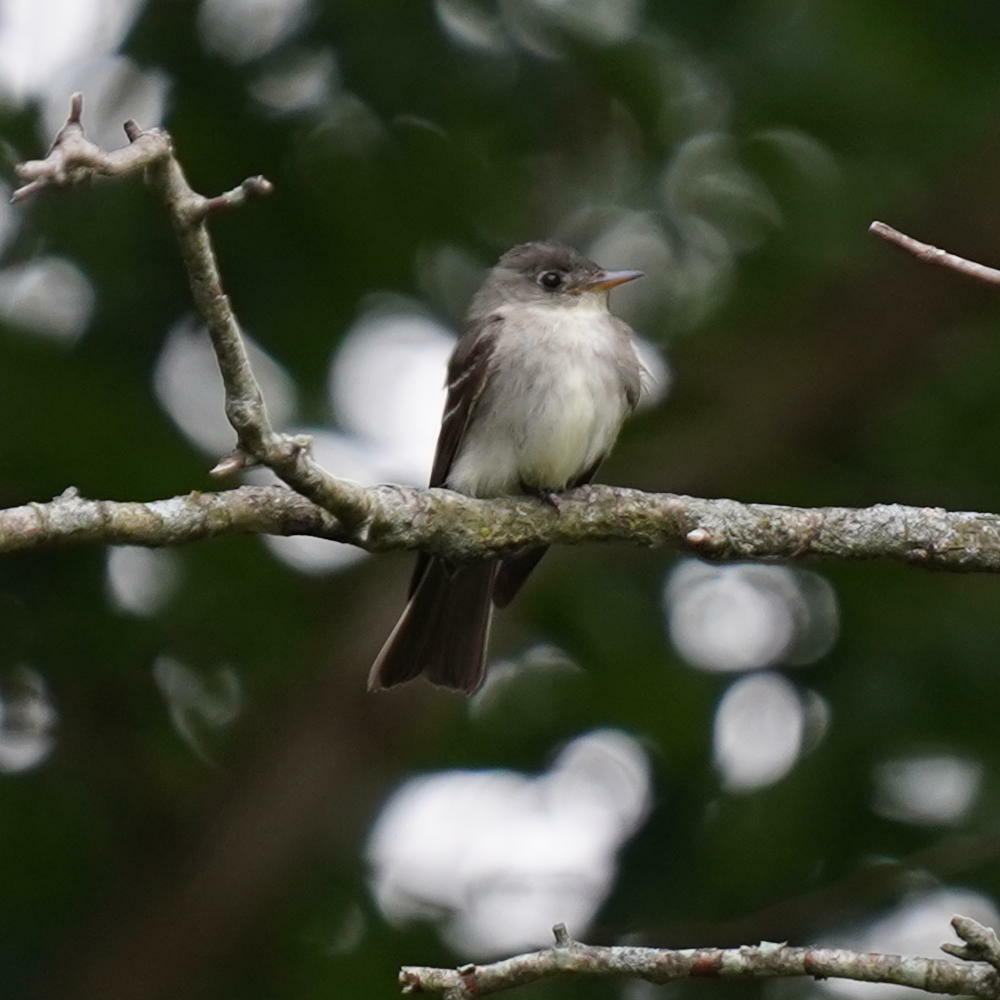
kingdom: Animalia
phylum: Chordata
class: Aves
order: Passeriformes
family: Tyrannidae
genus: Contopus
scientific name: Contopus virens
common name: Eastern wood-pewee
